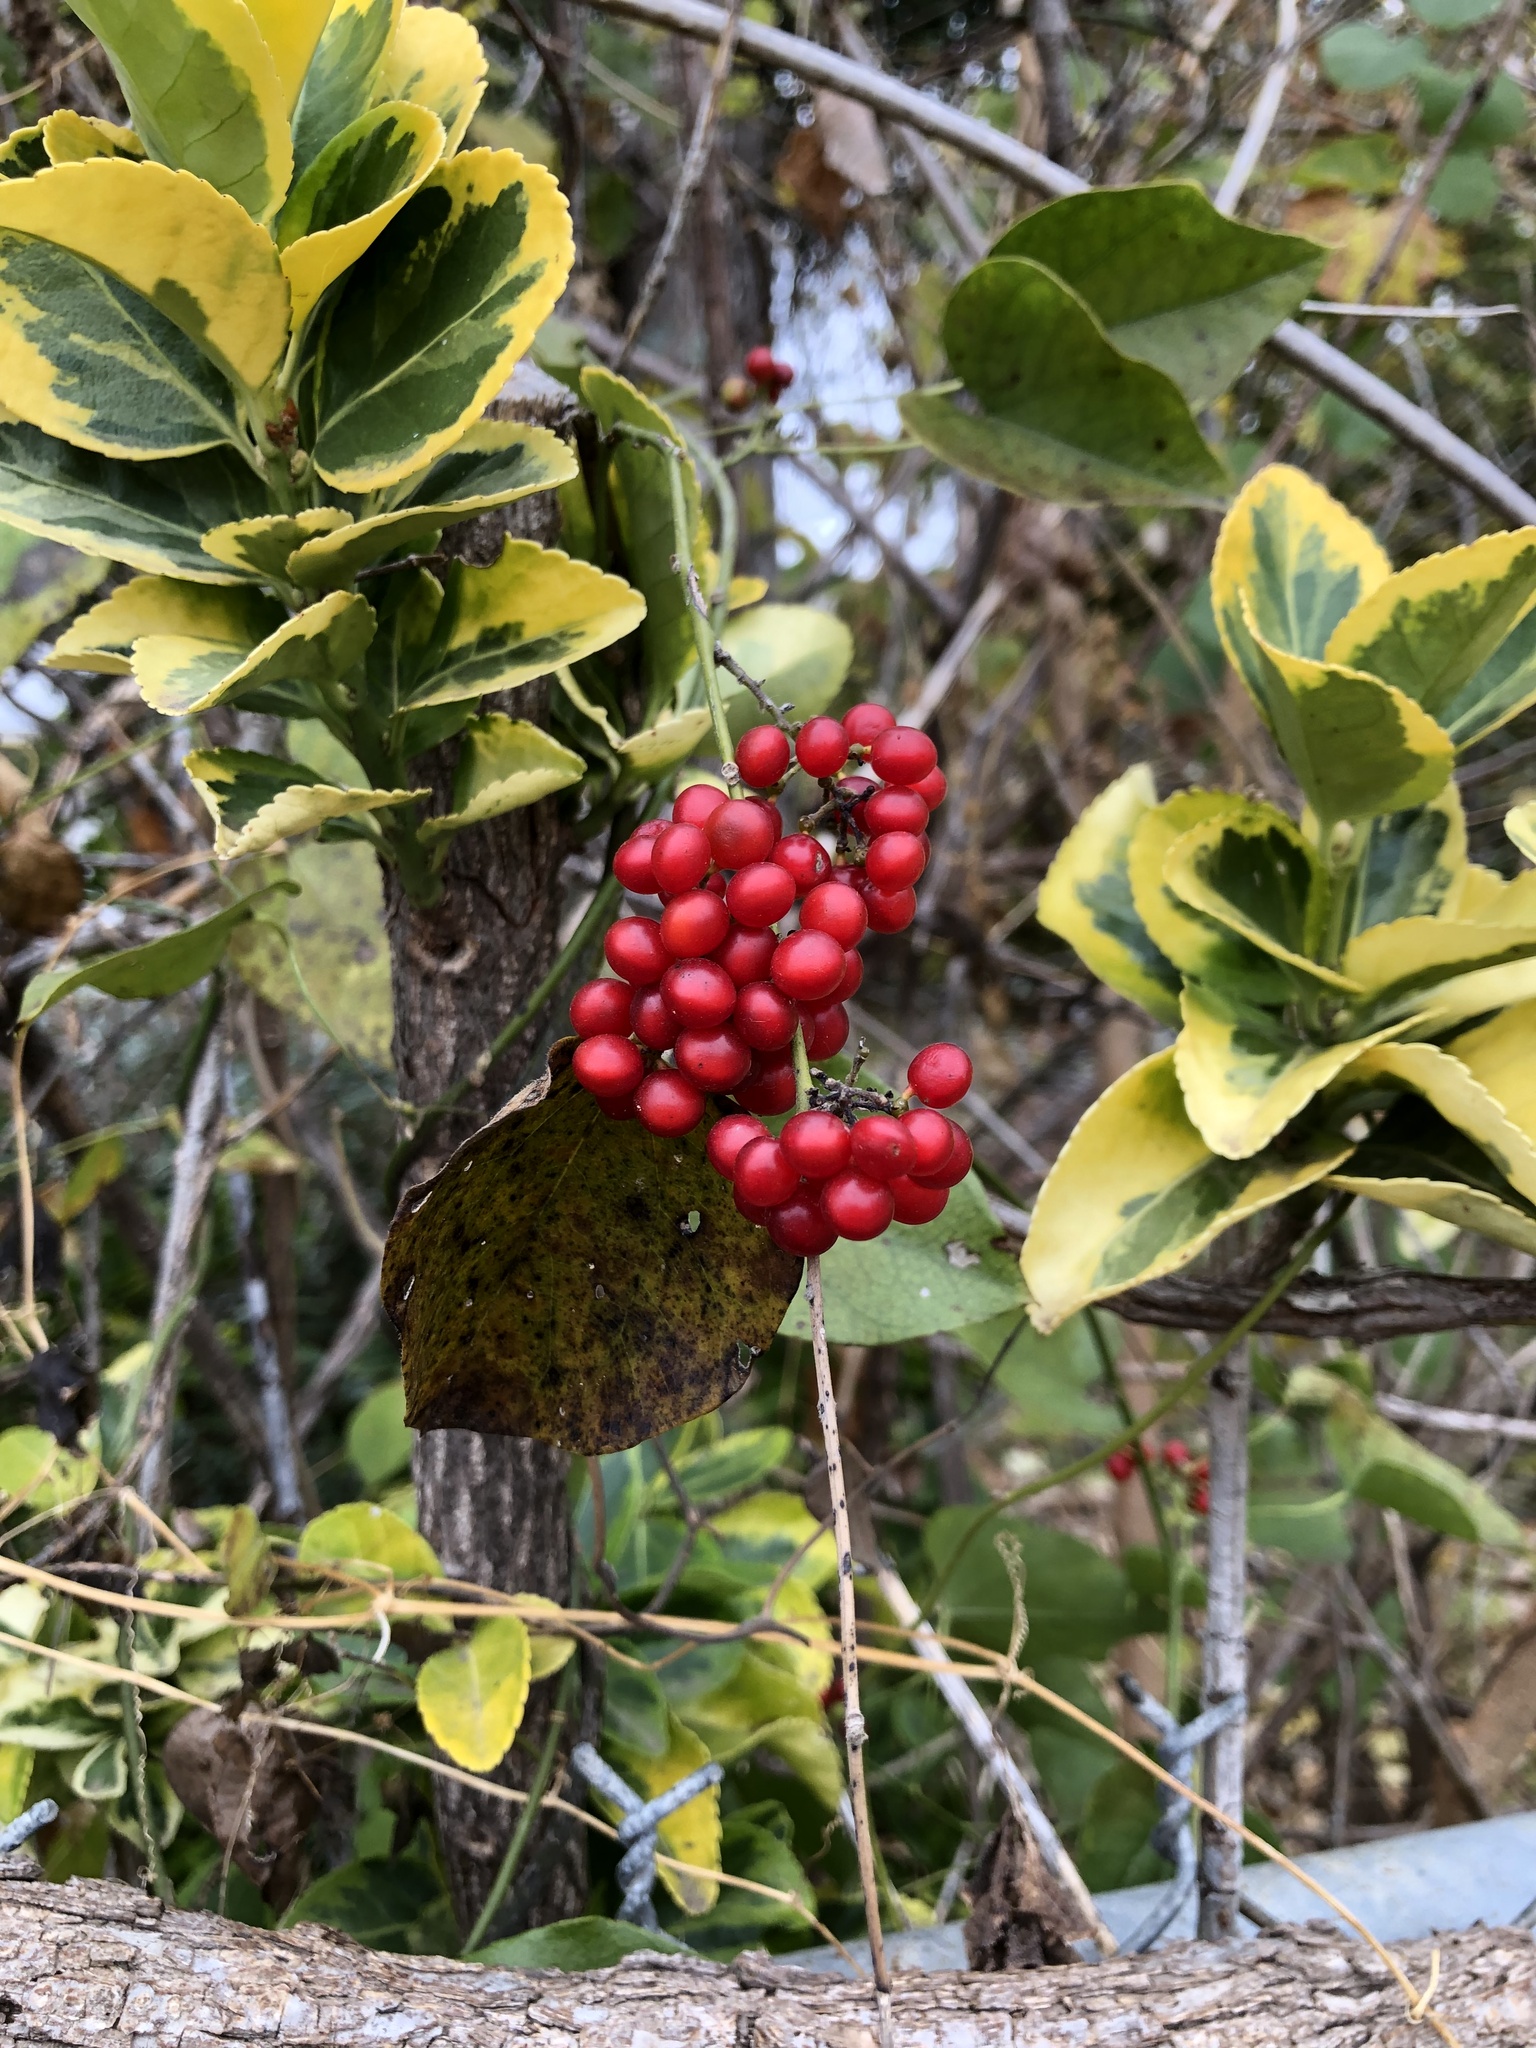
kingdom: Plantae
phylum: Tracheophyta
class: Magnoliopsida
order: Ranunculales
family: Menispermaceae
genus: Cocculus
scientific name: Cocculus carolinus
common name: Carolina moonseed
